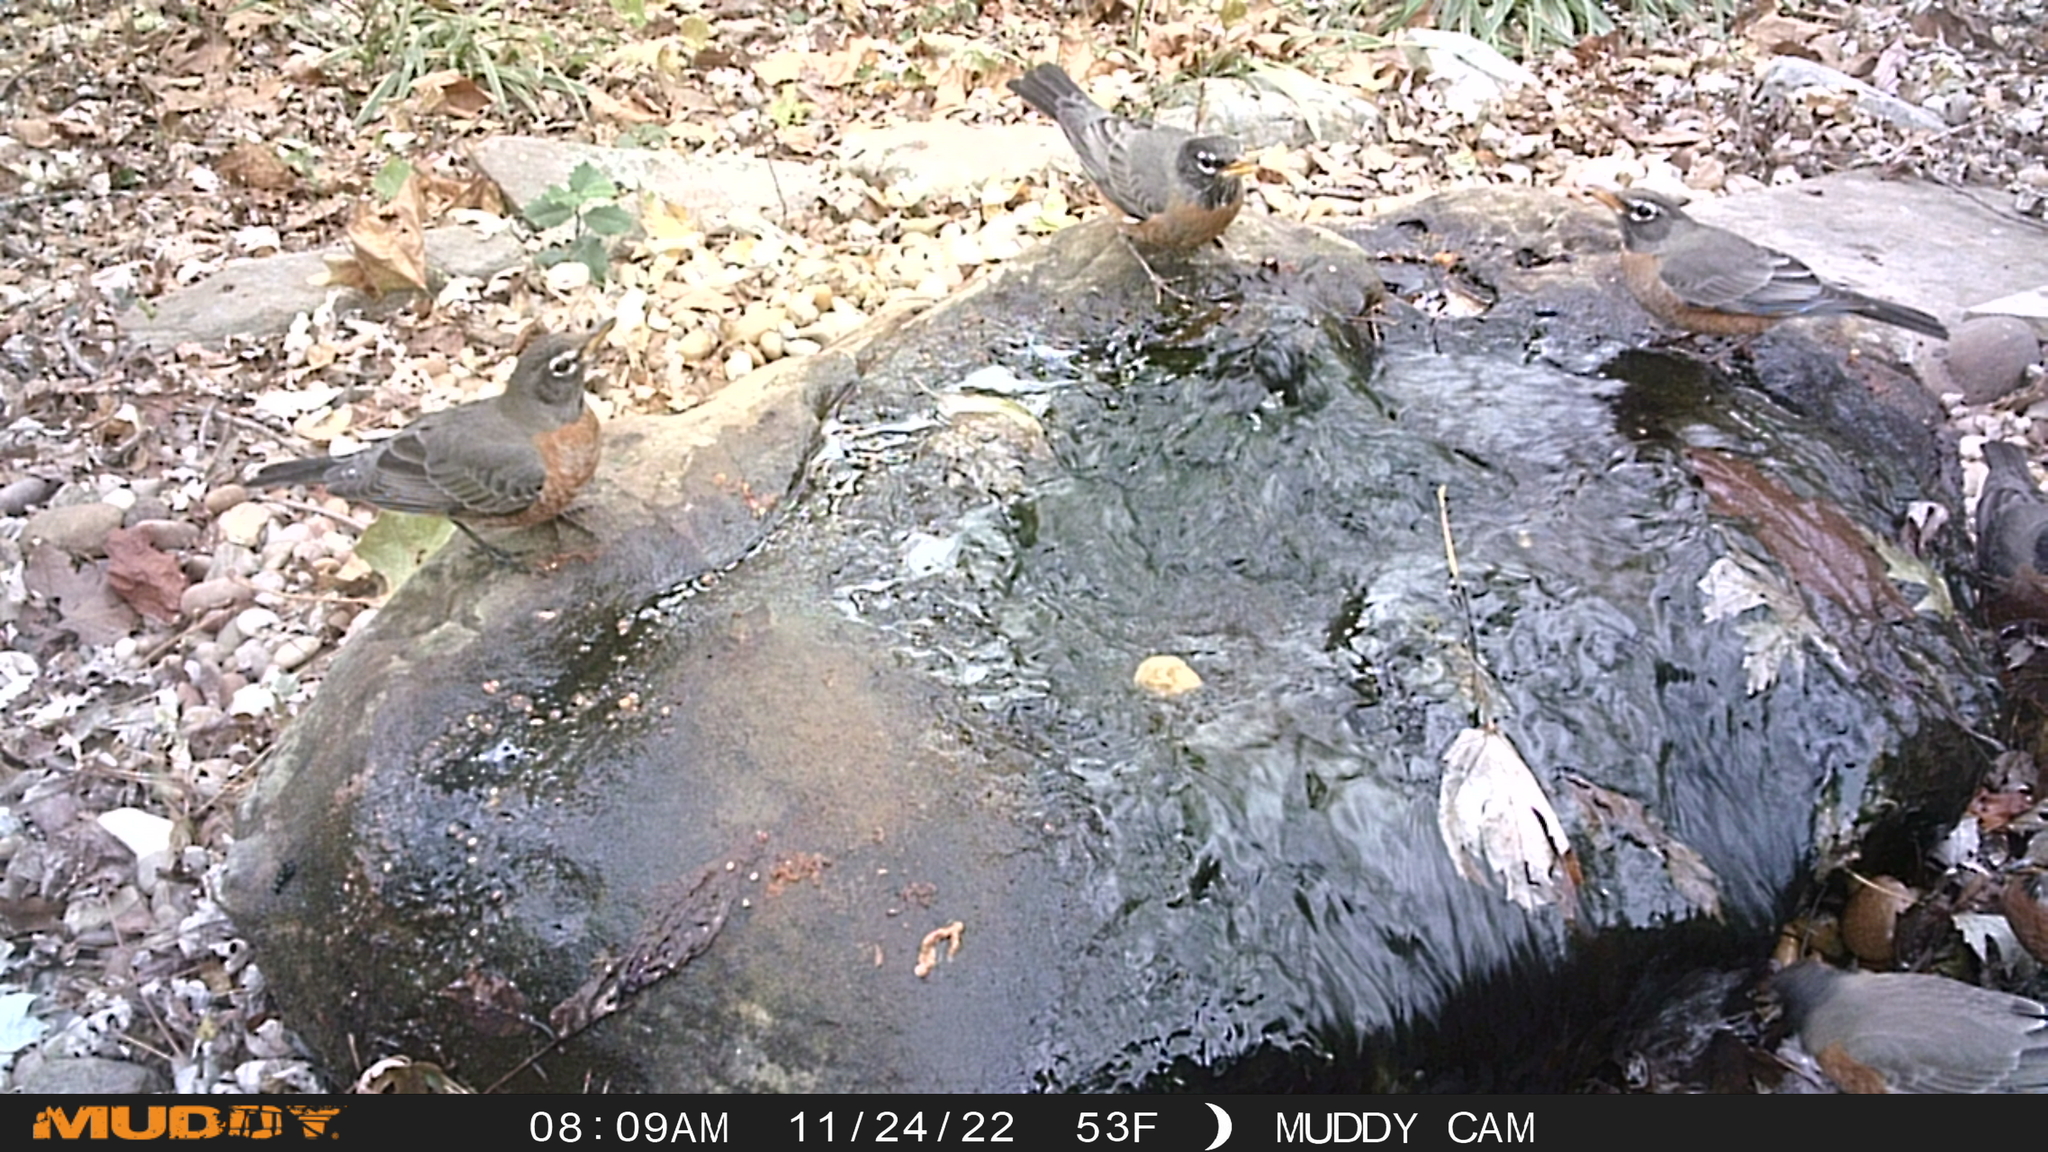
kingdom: Animalia
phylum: Chordata
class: Aves
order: Passeriformes
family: Turdidae
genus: Turdus
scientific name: Turdus migratorius
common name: American robin
